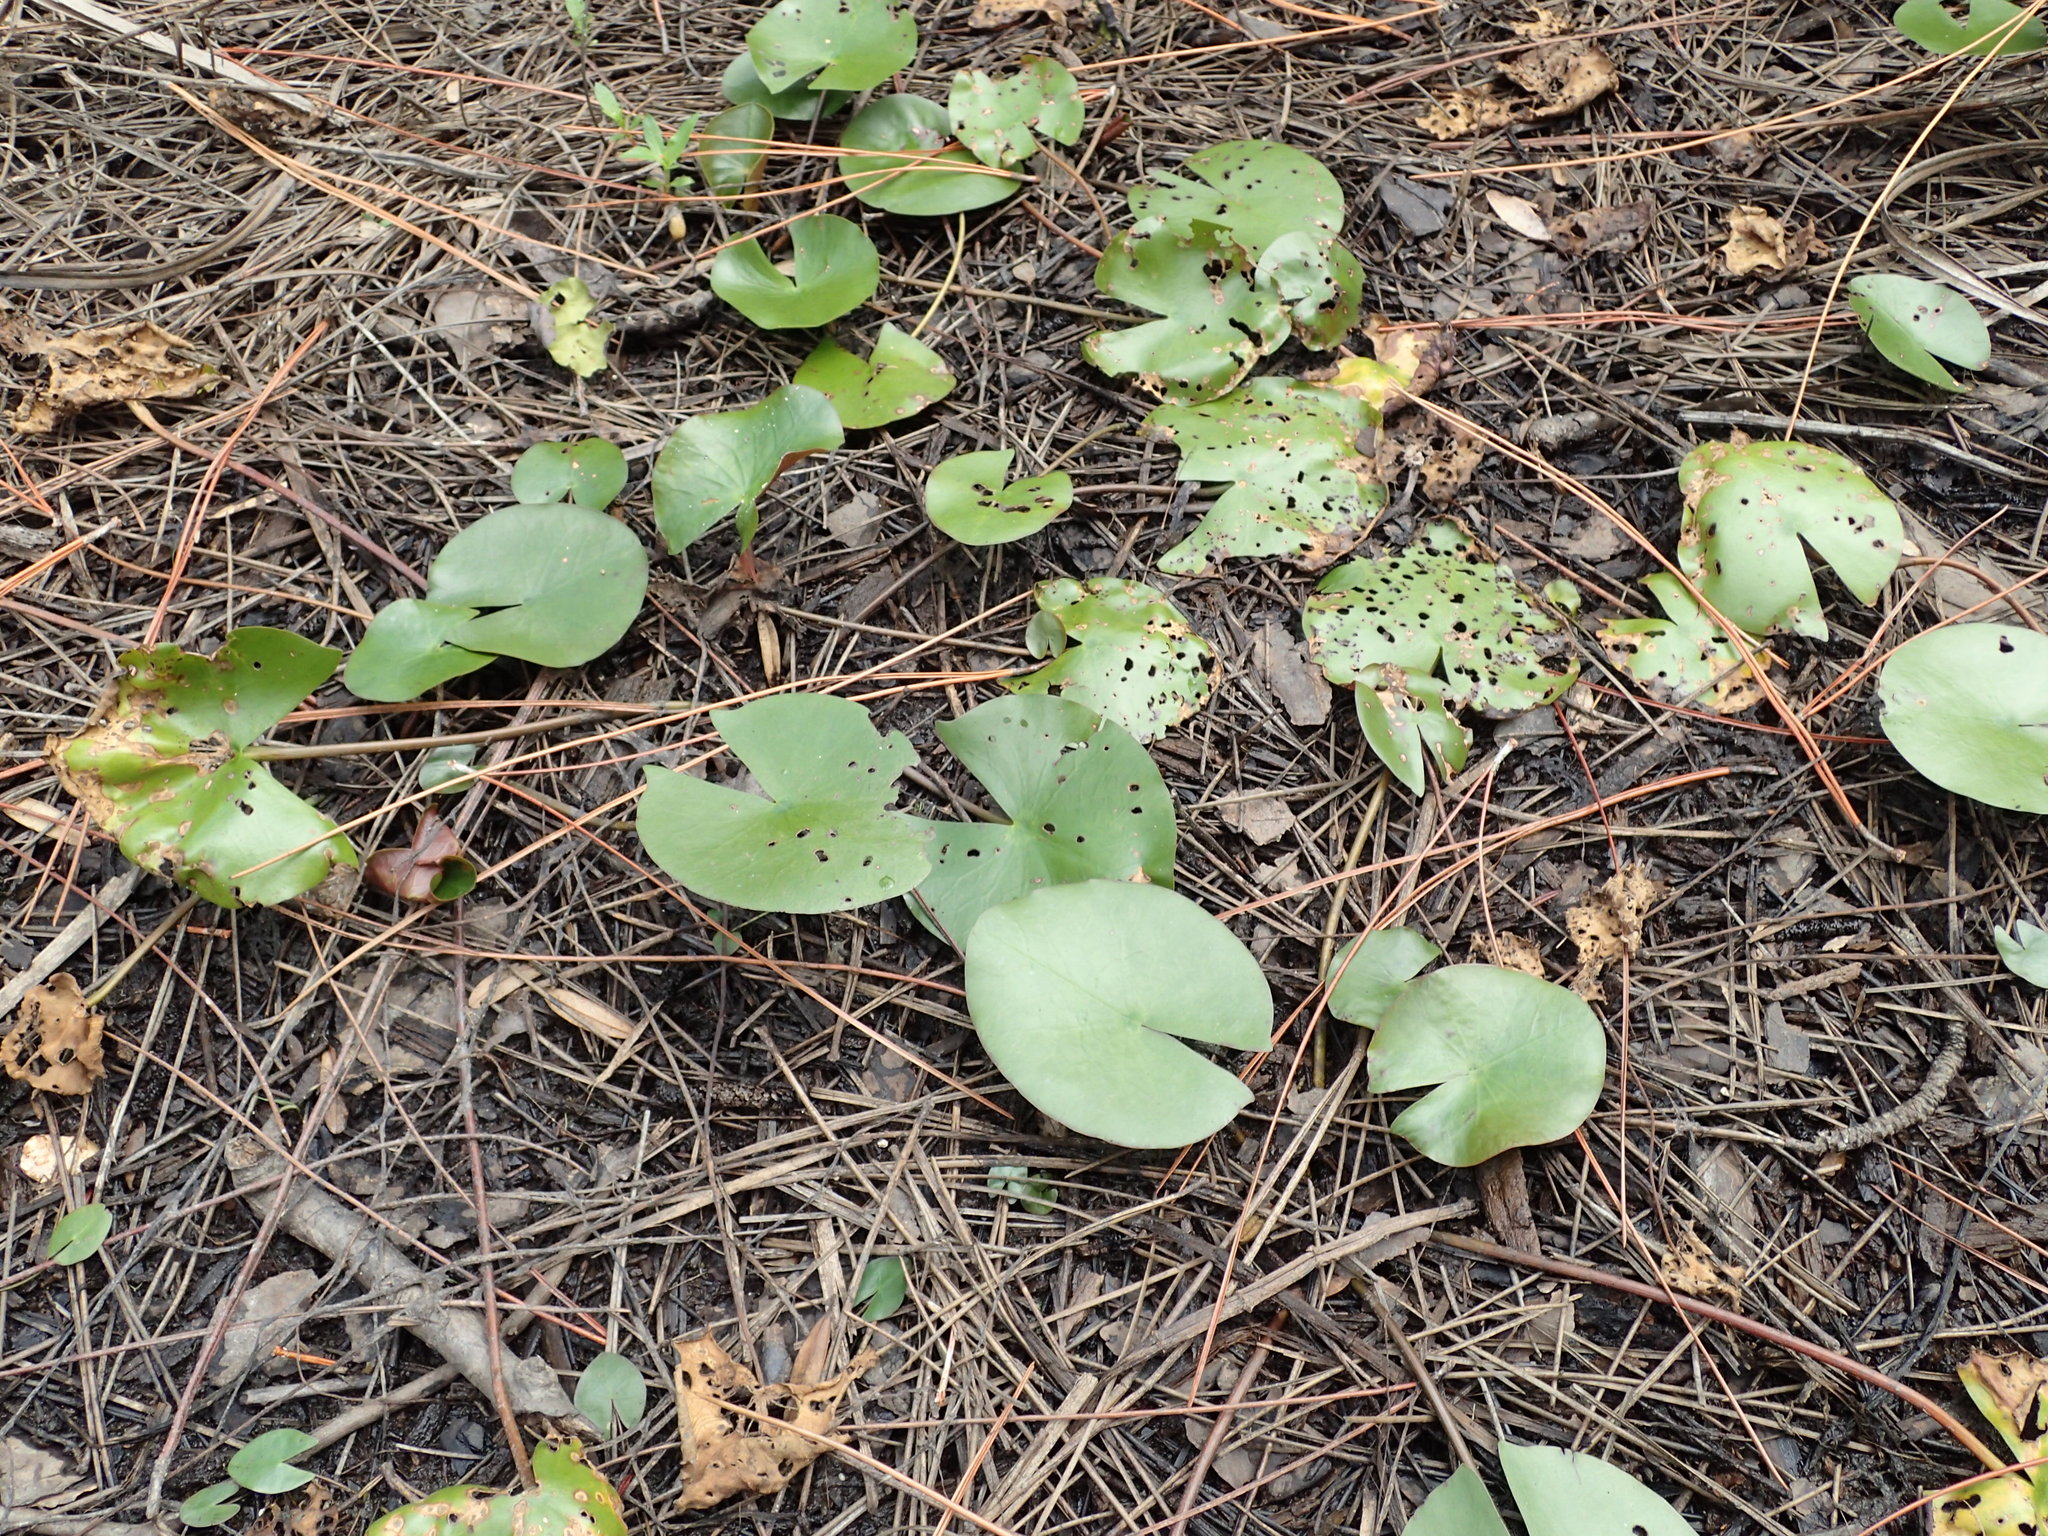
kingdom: Plantae
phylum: Tracheophyta
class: Magnoliopsida
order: Nymphaeales
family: Nymphaeaceae
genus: Nymphaea
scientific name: Nymphaea odorata
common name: Fragrant water-lily
